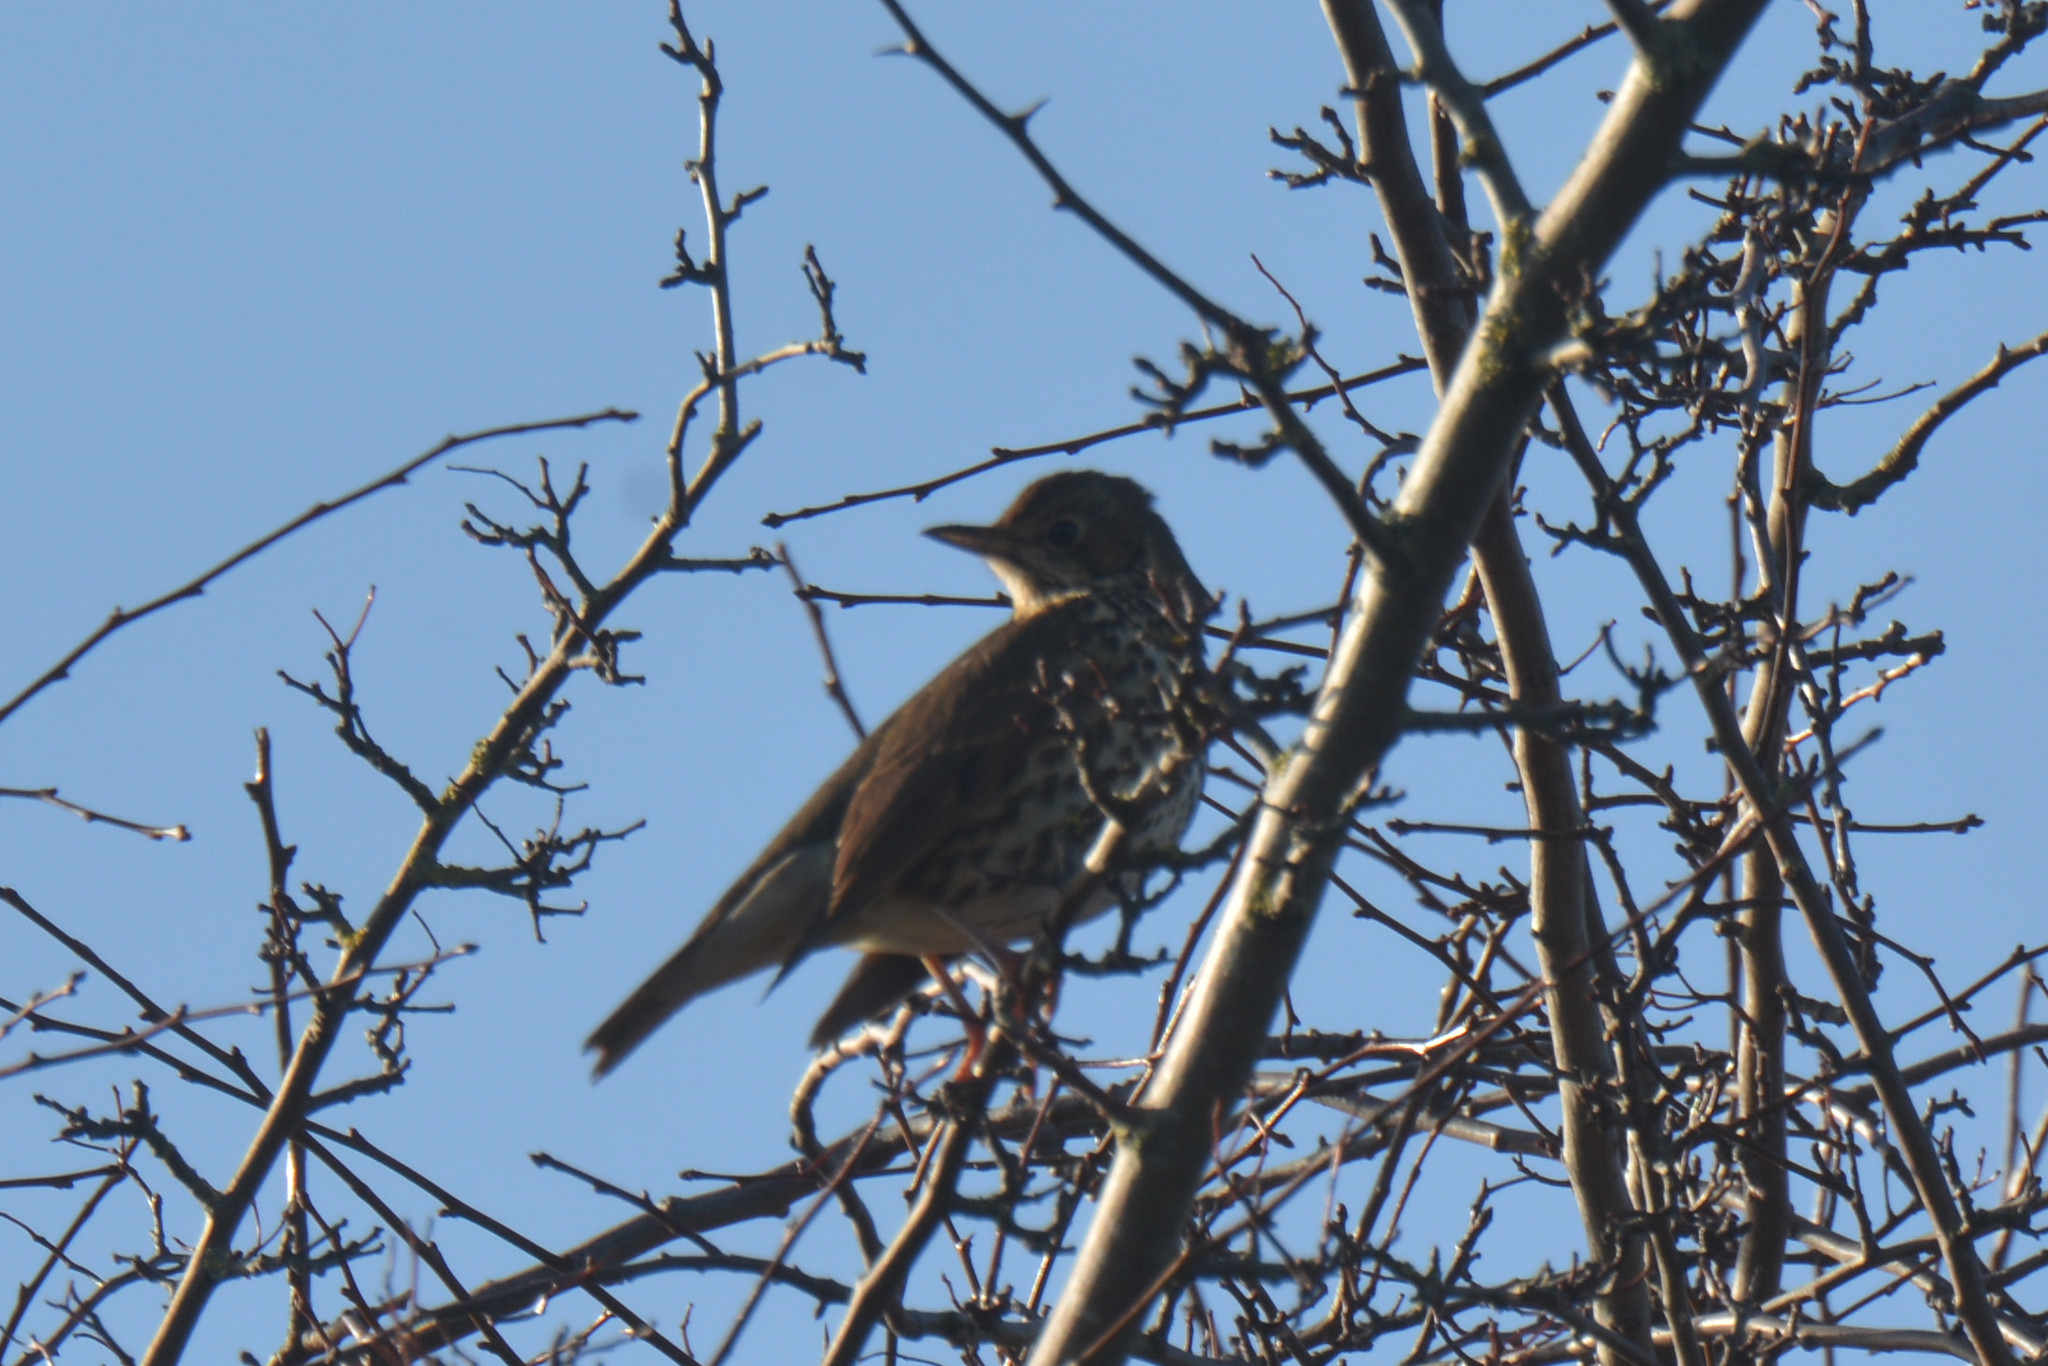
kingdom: Animalia
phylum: Chordata
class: Aves
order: Passeriformes
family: Turdidae
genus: Turdus
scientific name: Turdus philomelos
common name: Song thrush
